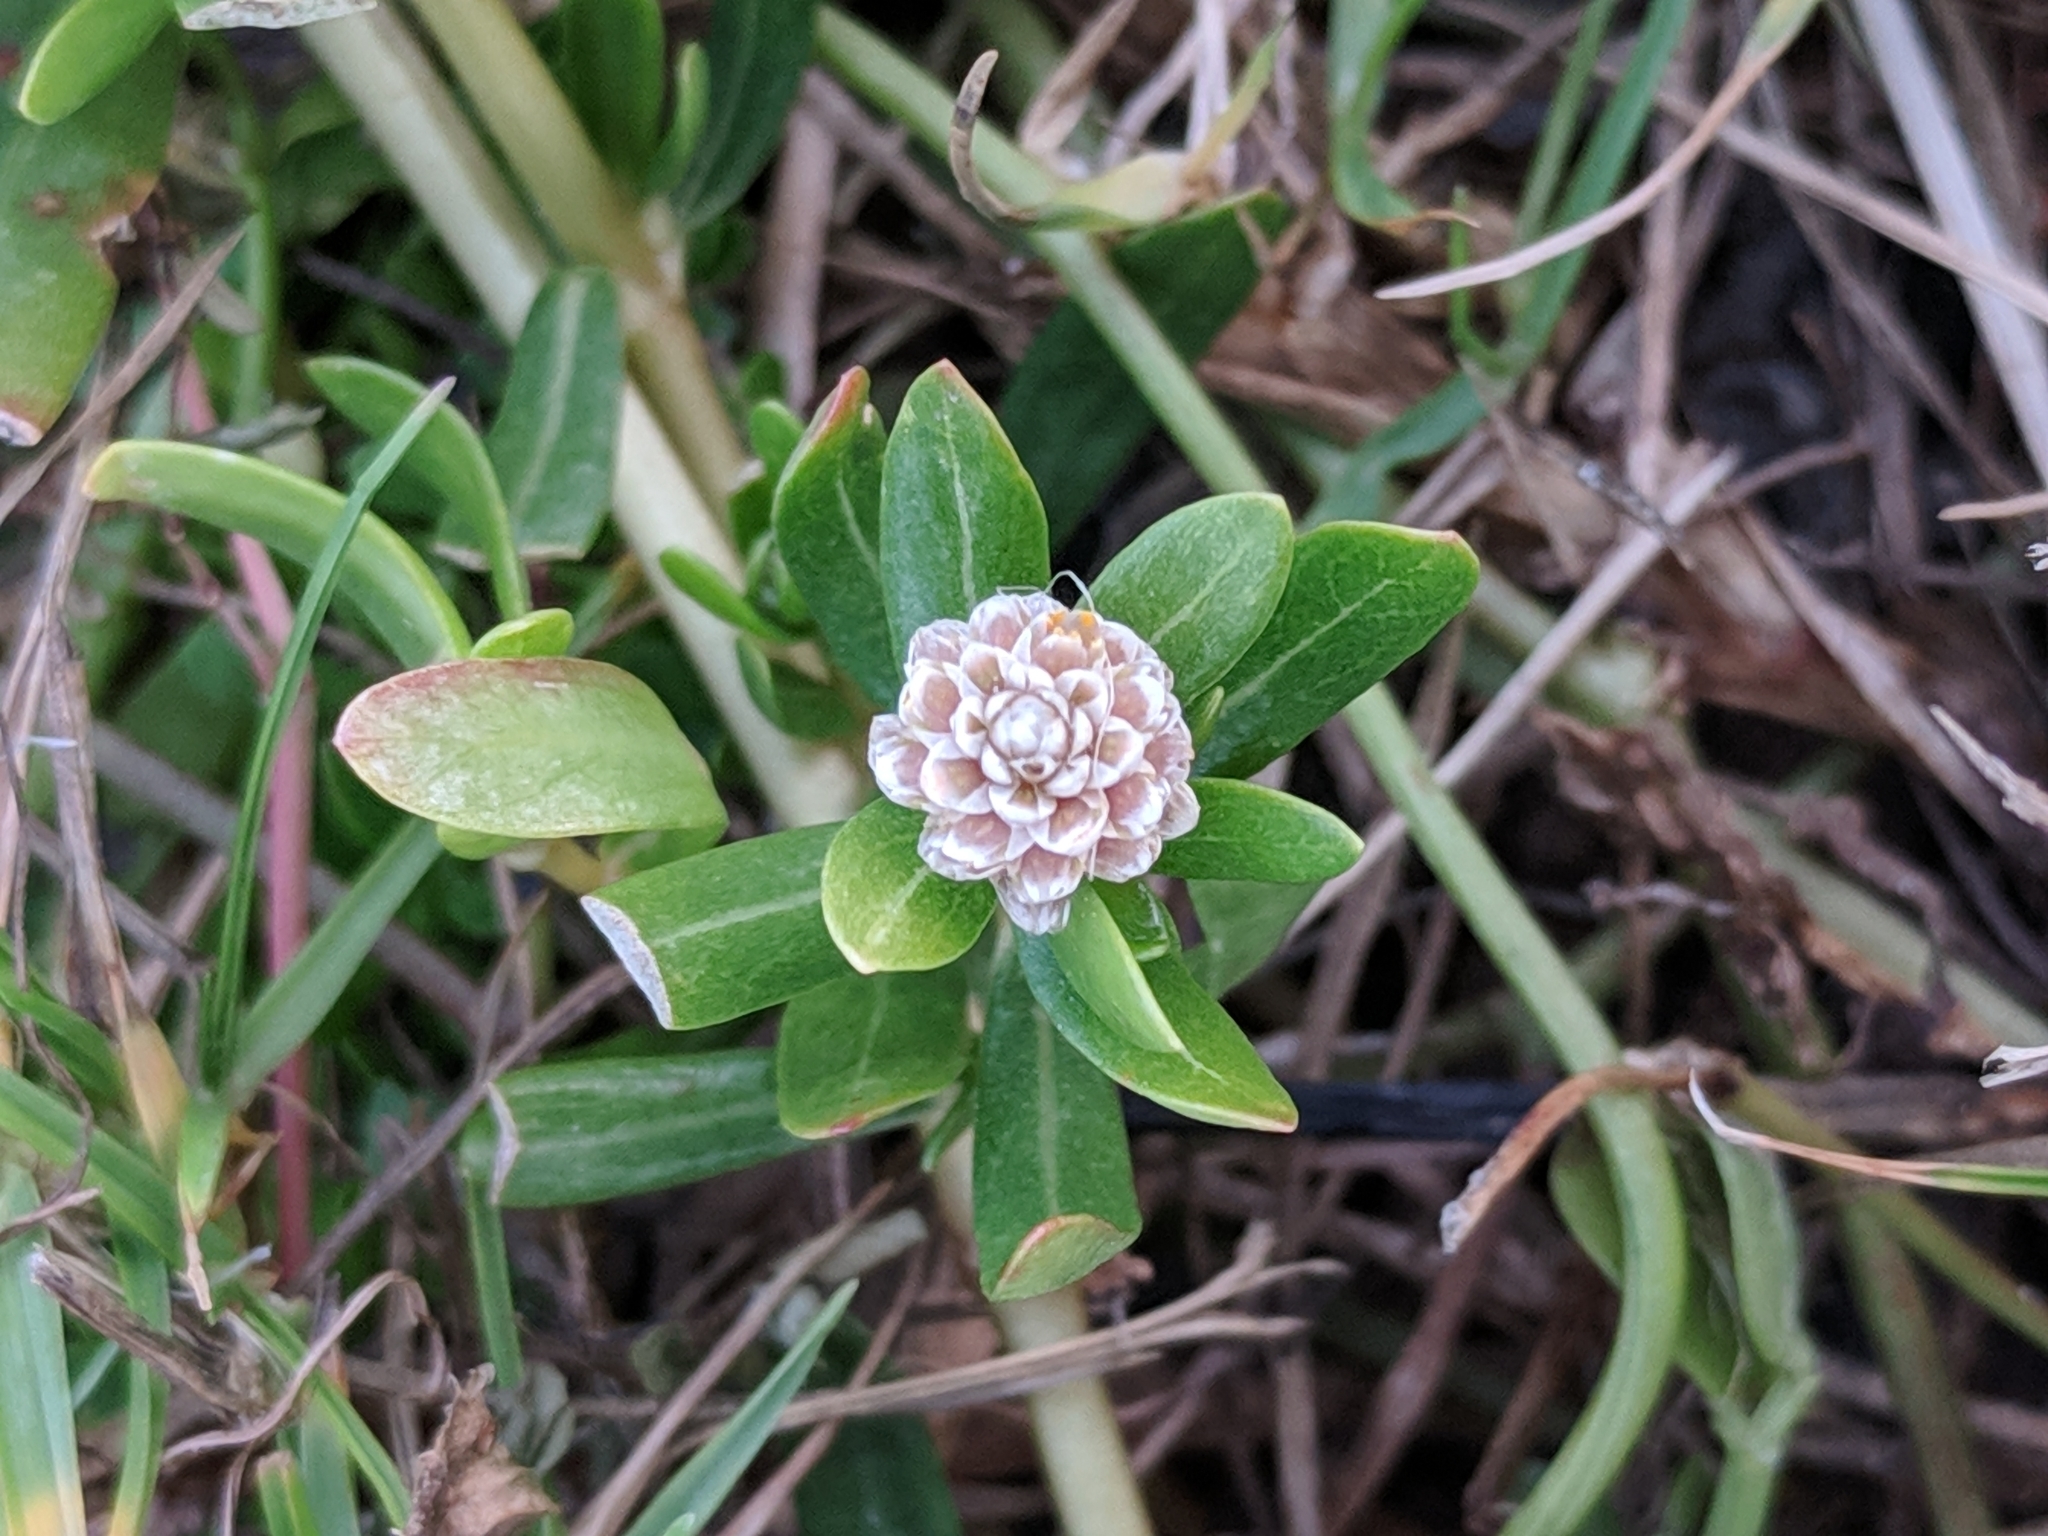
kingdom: Plantae
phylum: Tracheophyta
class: Magnoliopsida
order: Caryophyllales
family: Amaranthaceae
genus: Gomphrena
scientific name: Gomphrena vermicularis
